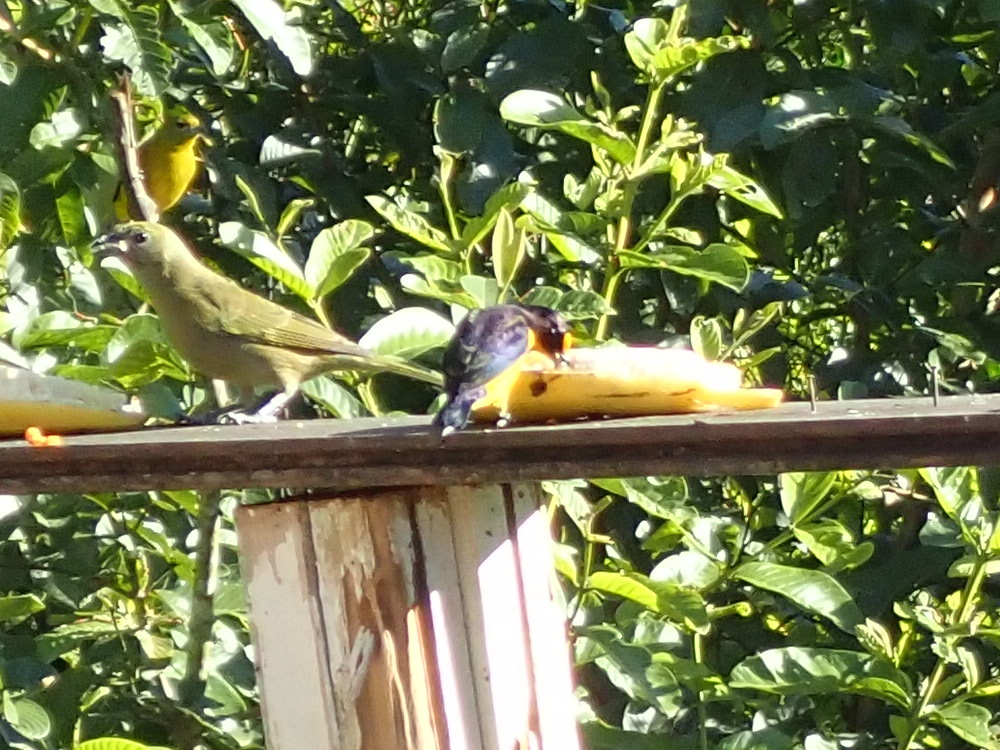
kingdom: Animalia
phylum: Chordata
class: Aves
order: Passeriformes
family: Fringillidae
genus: Euphonia
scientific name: Euphonia violacea
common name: Violaceous euphonia
